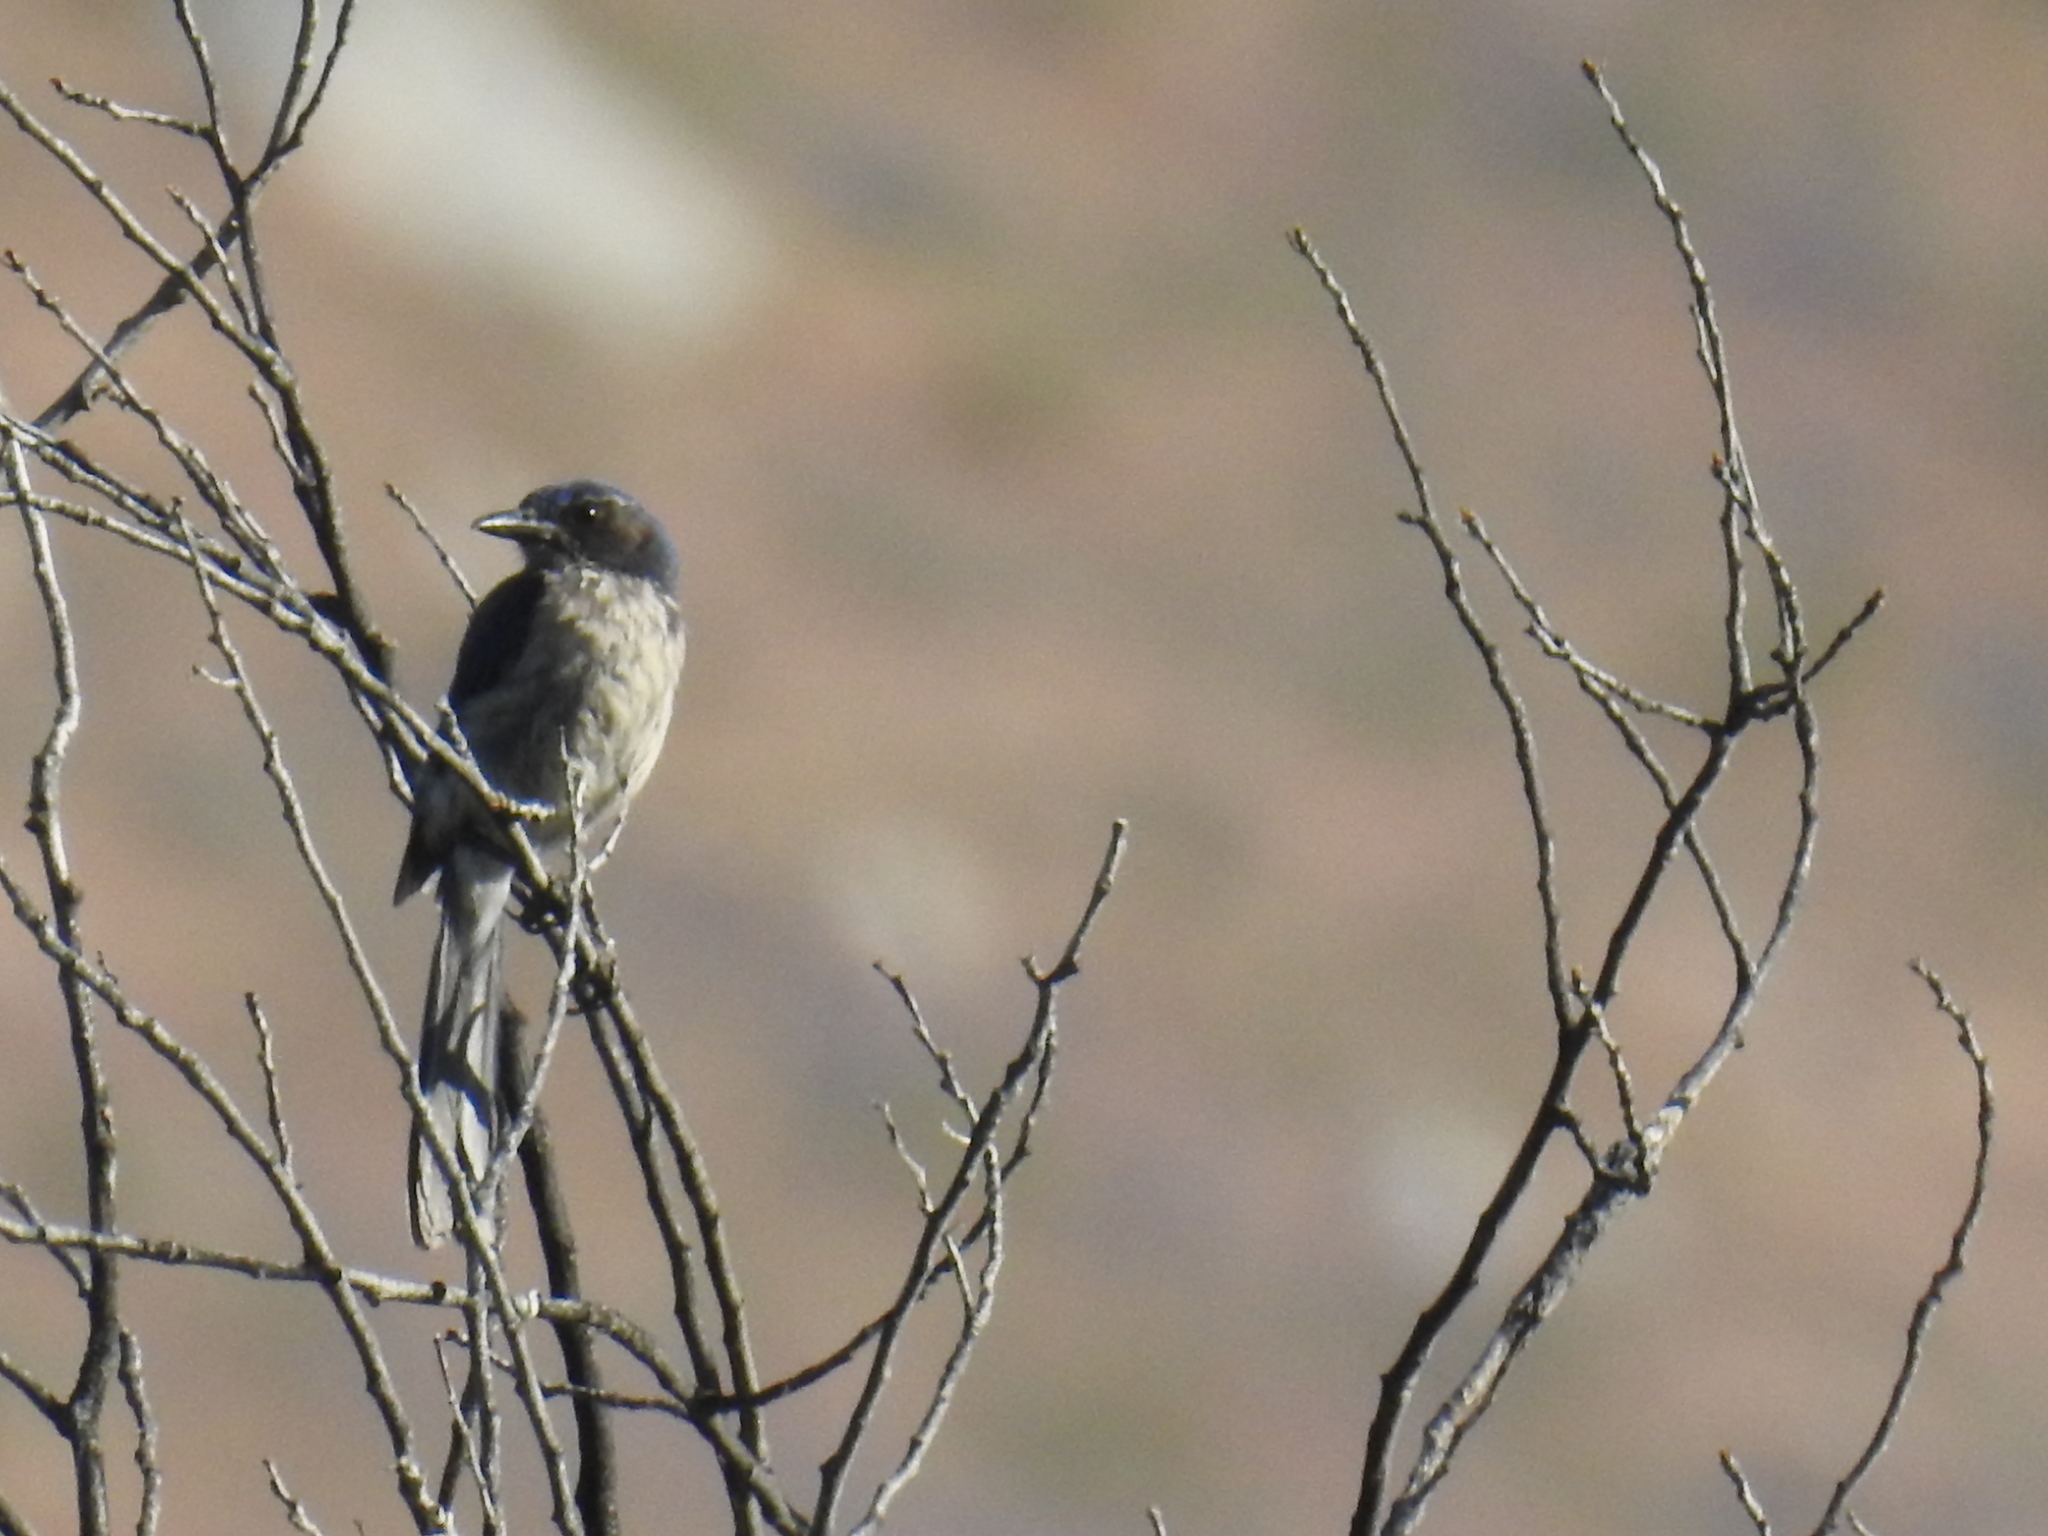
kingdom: Animalia
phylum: Chordata
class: Aves
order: Passeriformes
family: Corvidae
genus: Aphelocoma
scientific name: Aphelocoma californica
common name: California scrub-jay
